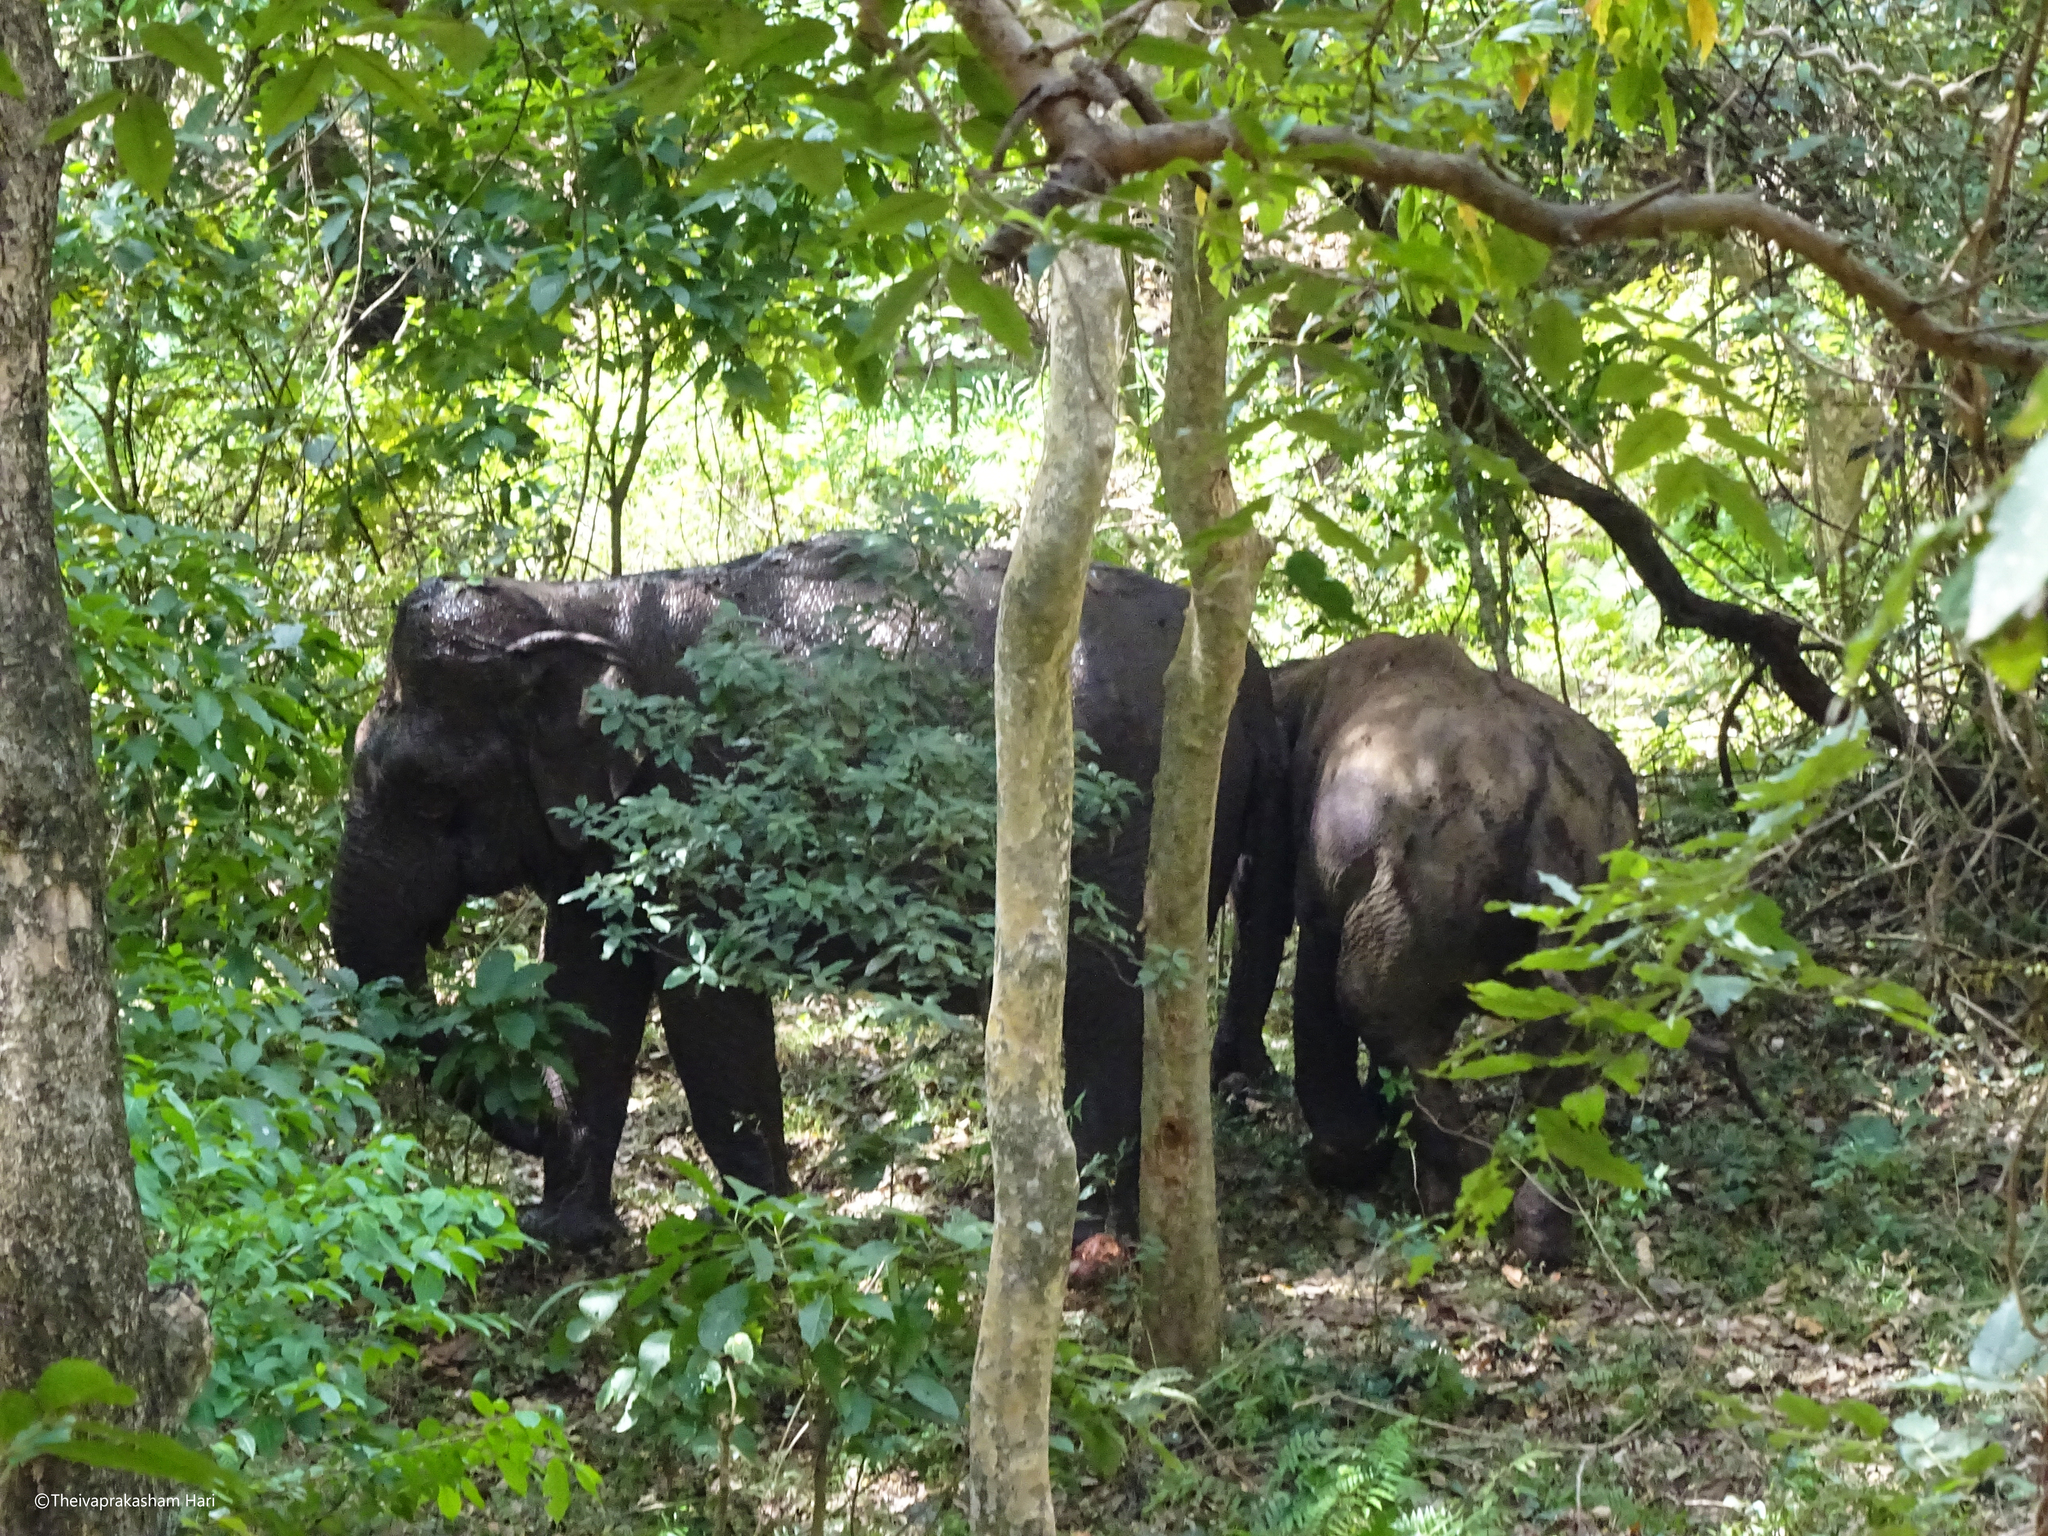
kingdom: Animalia
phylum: Chordata
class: Mammalia
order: Proboscidea
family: Elephantidae
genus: Elephas
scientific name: Elephas maximus
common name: Asian elephant
